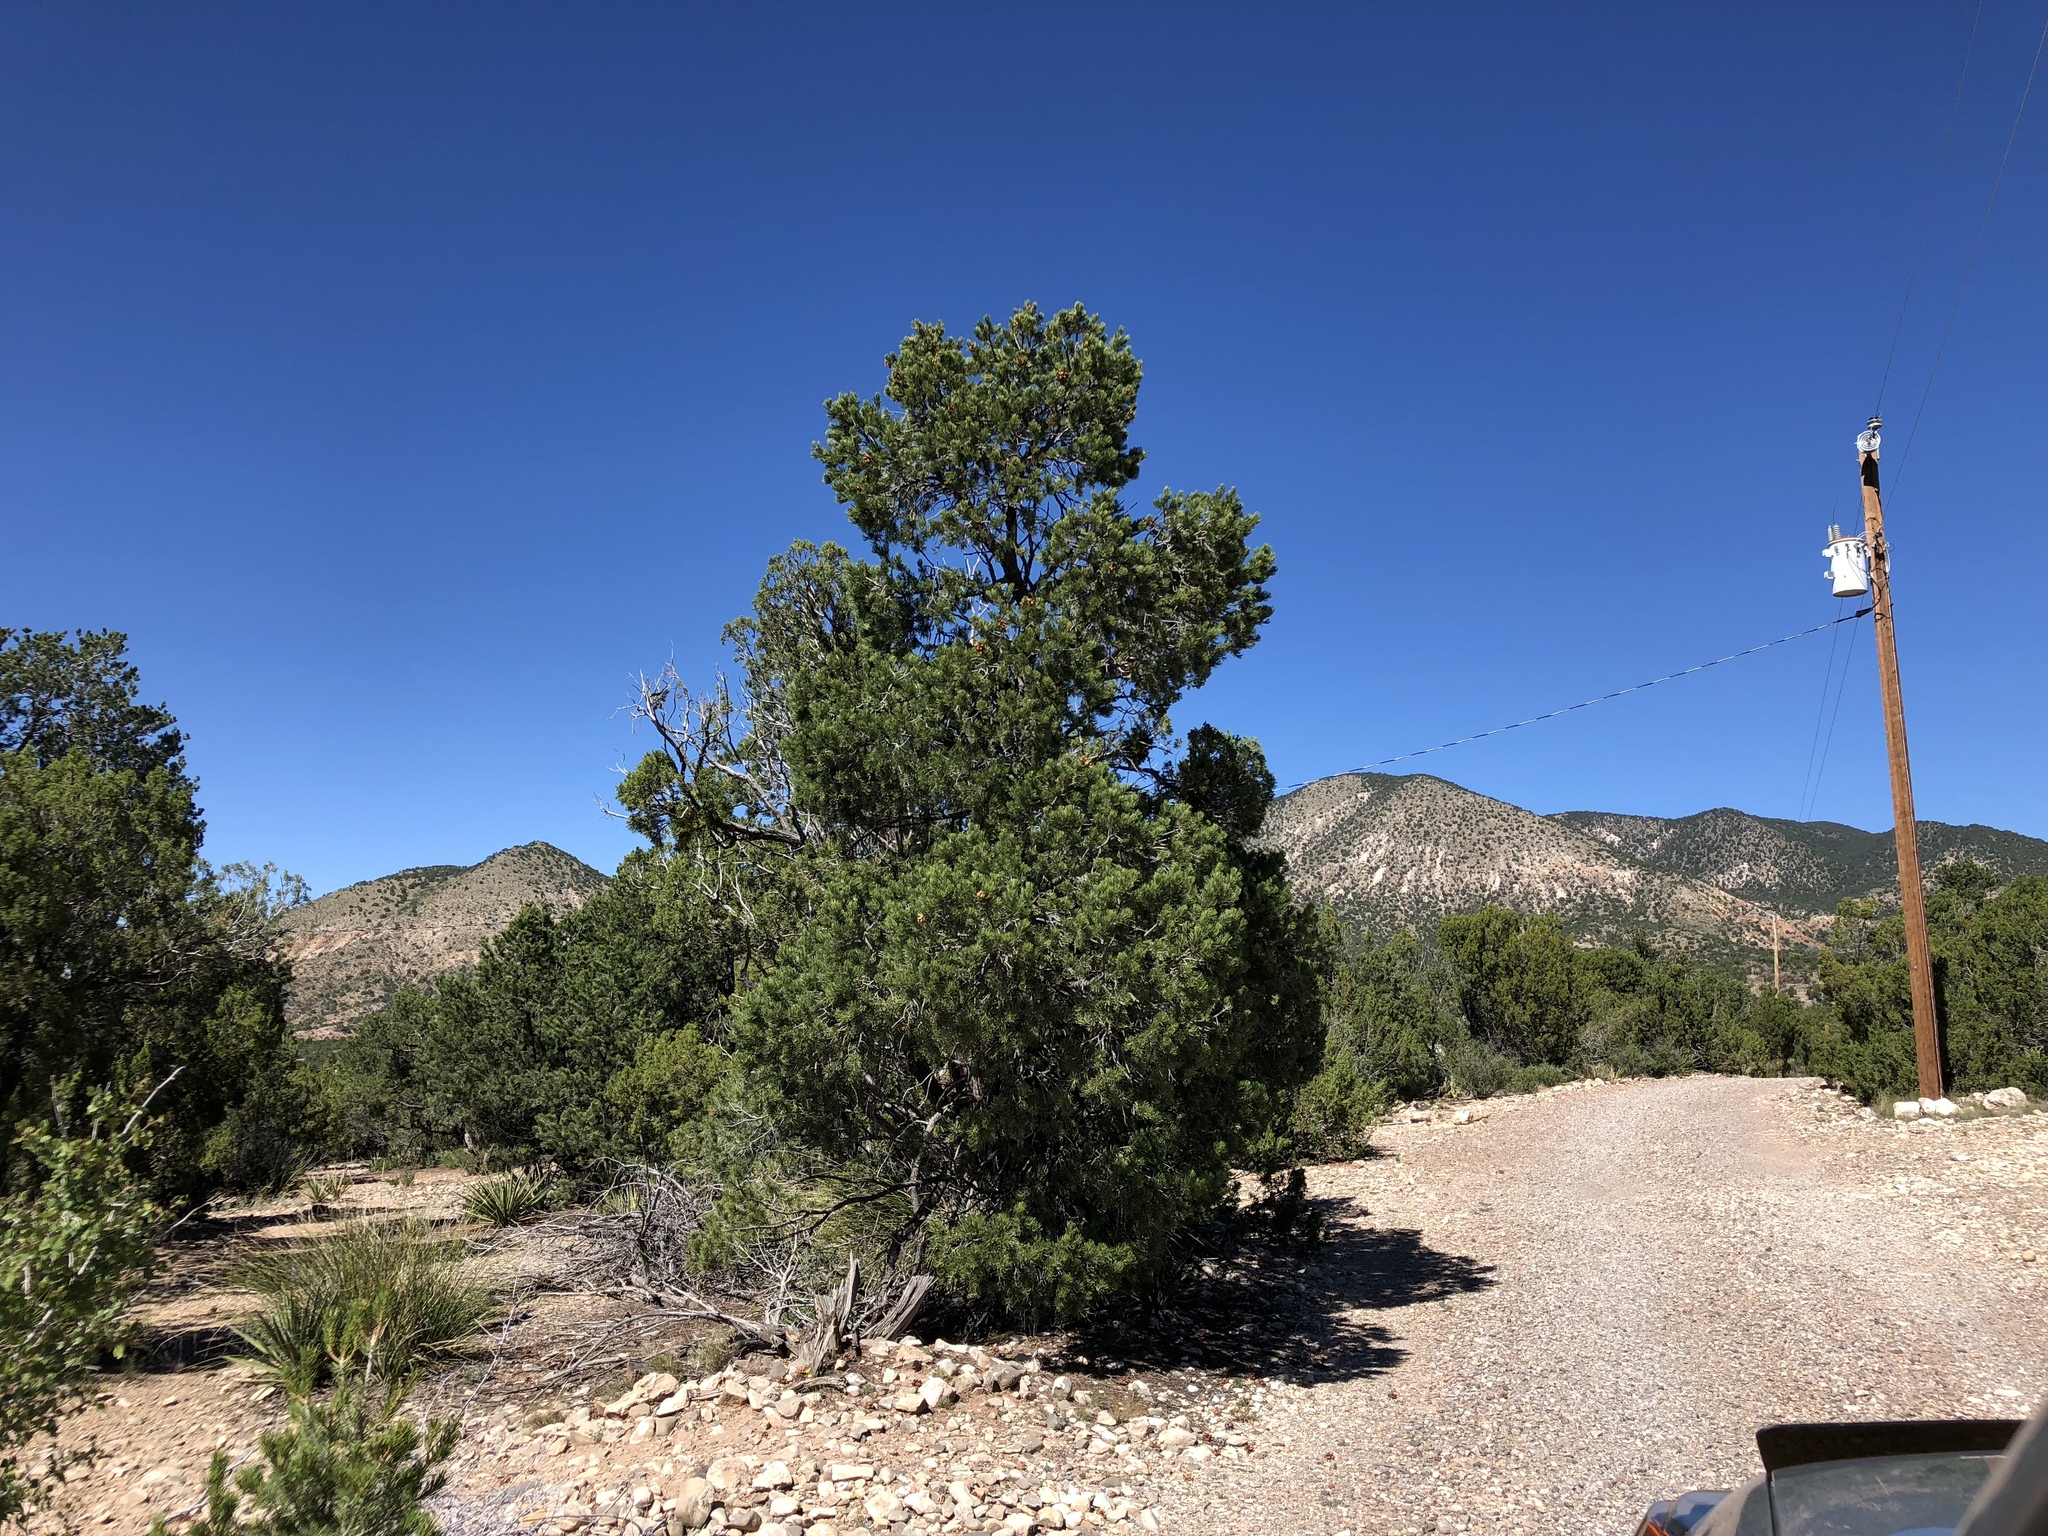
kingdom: Plantae
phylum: Tracheophyta
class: Pinopsida
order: Pinales
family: Pinaceae
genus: Pinus
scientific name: Pinus edulis
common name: Colorado pinyon
